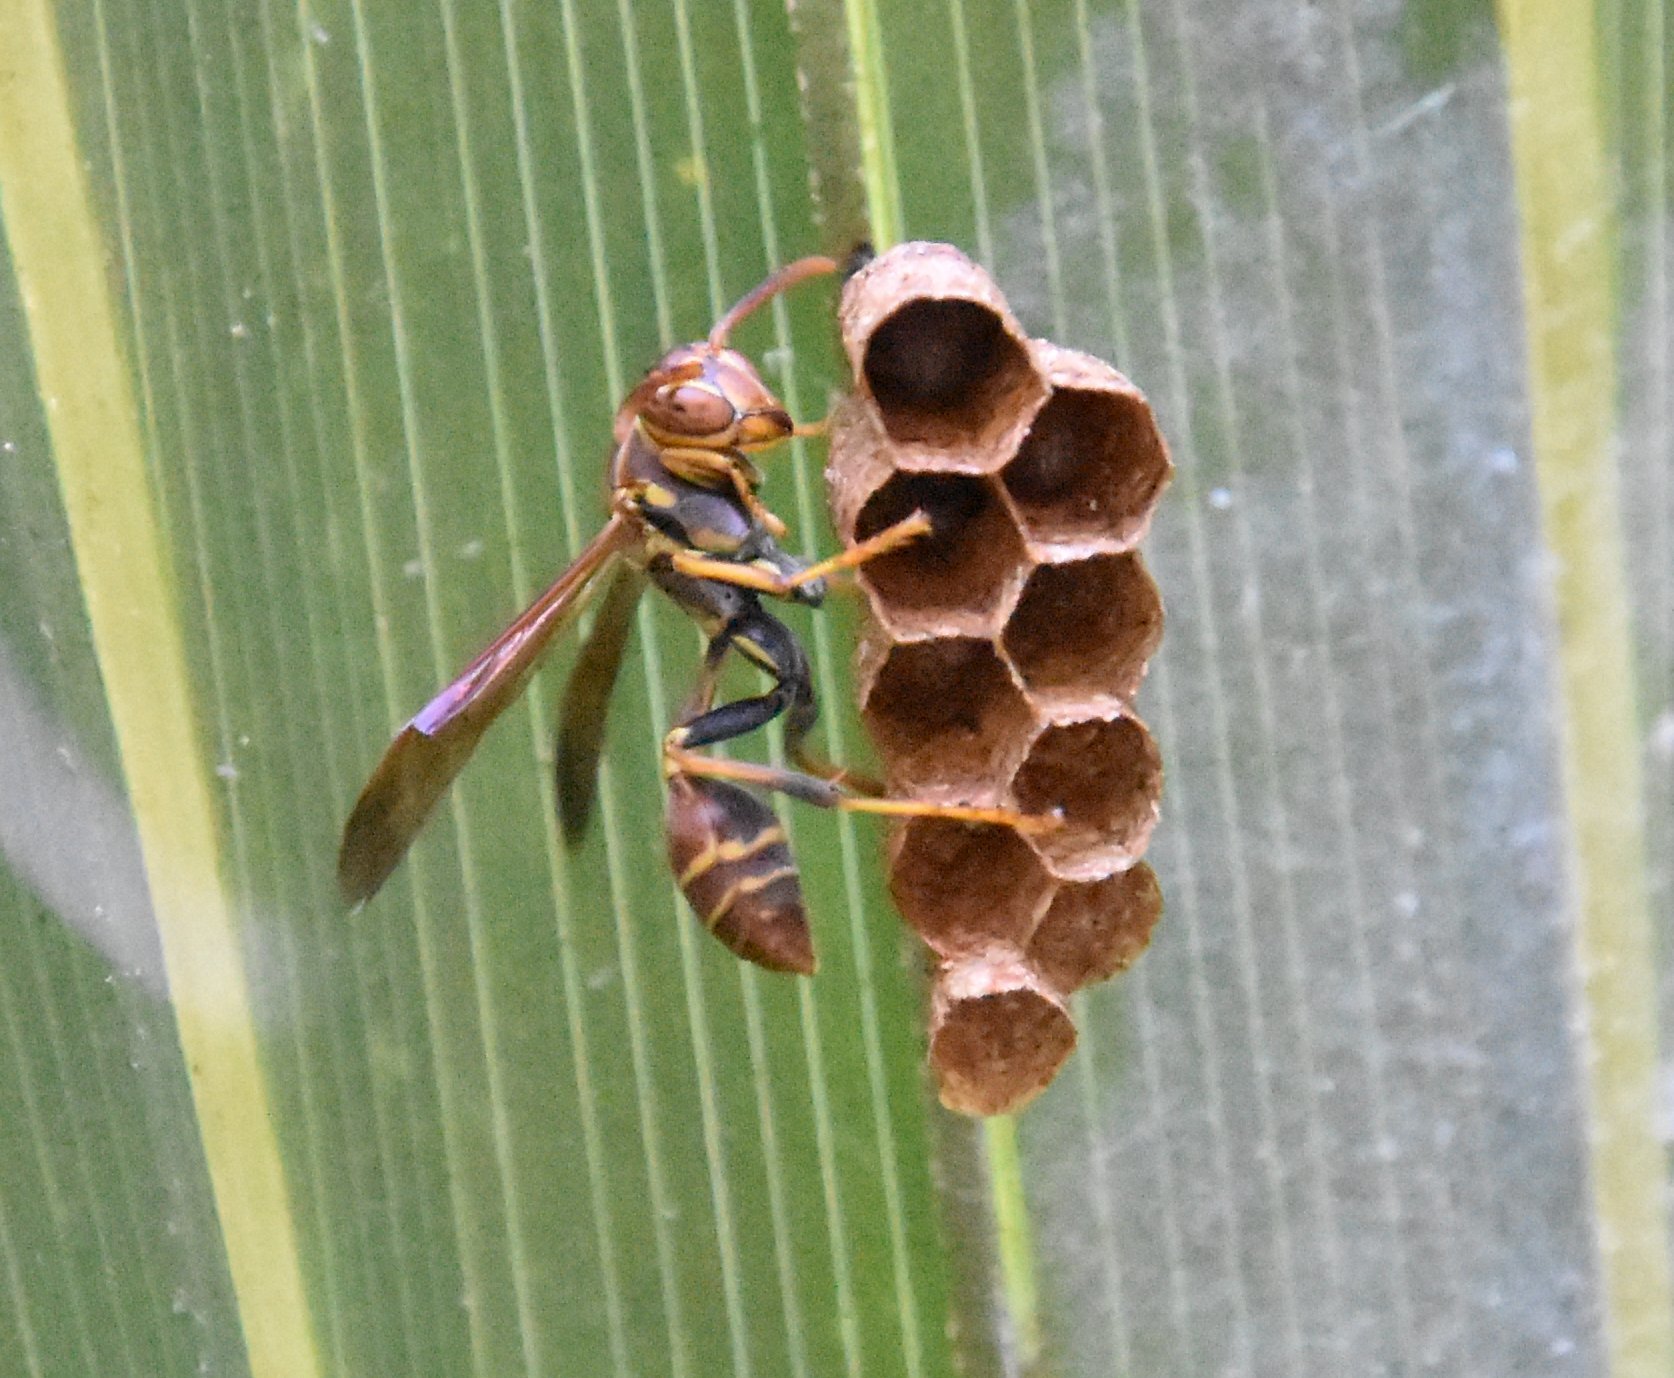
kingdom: Animalia
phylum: Arthropoda
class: Insecta
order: Hymenoptera
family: Vespidae
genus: Mischocyttarus
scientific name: Mischocyttarus mexicanus
